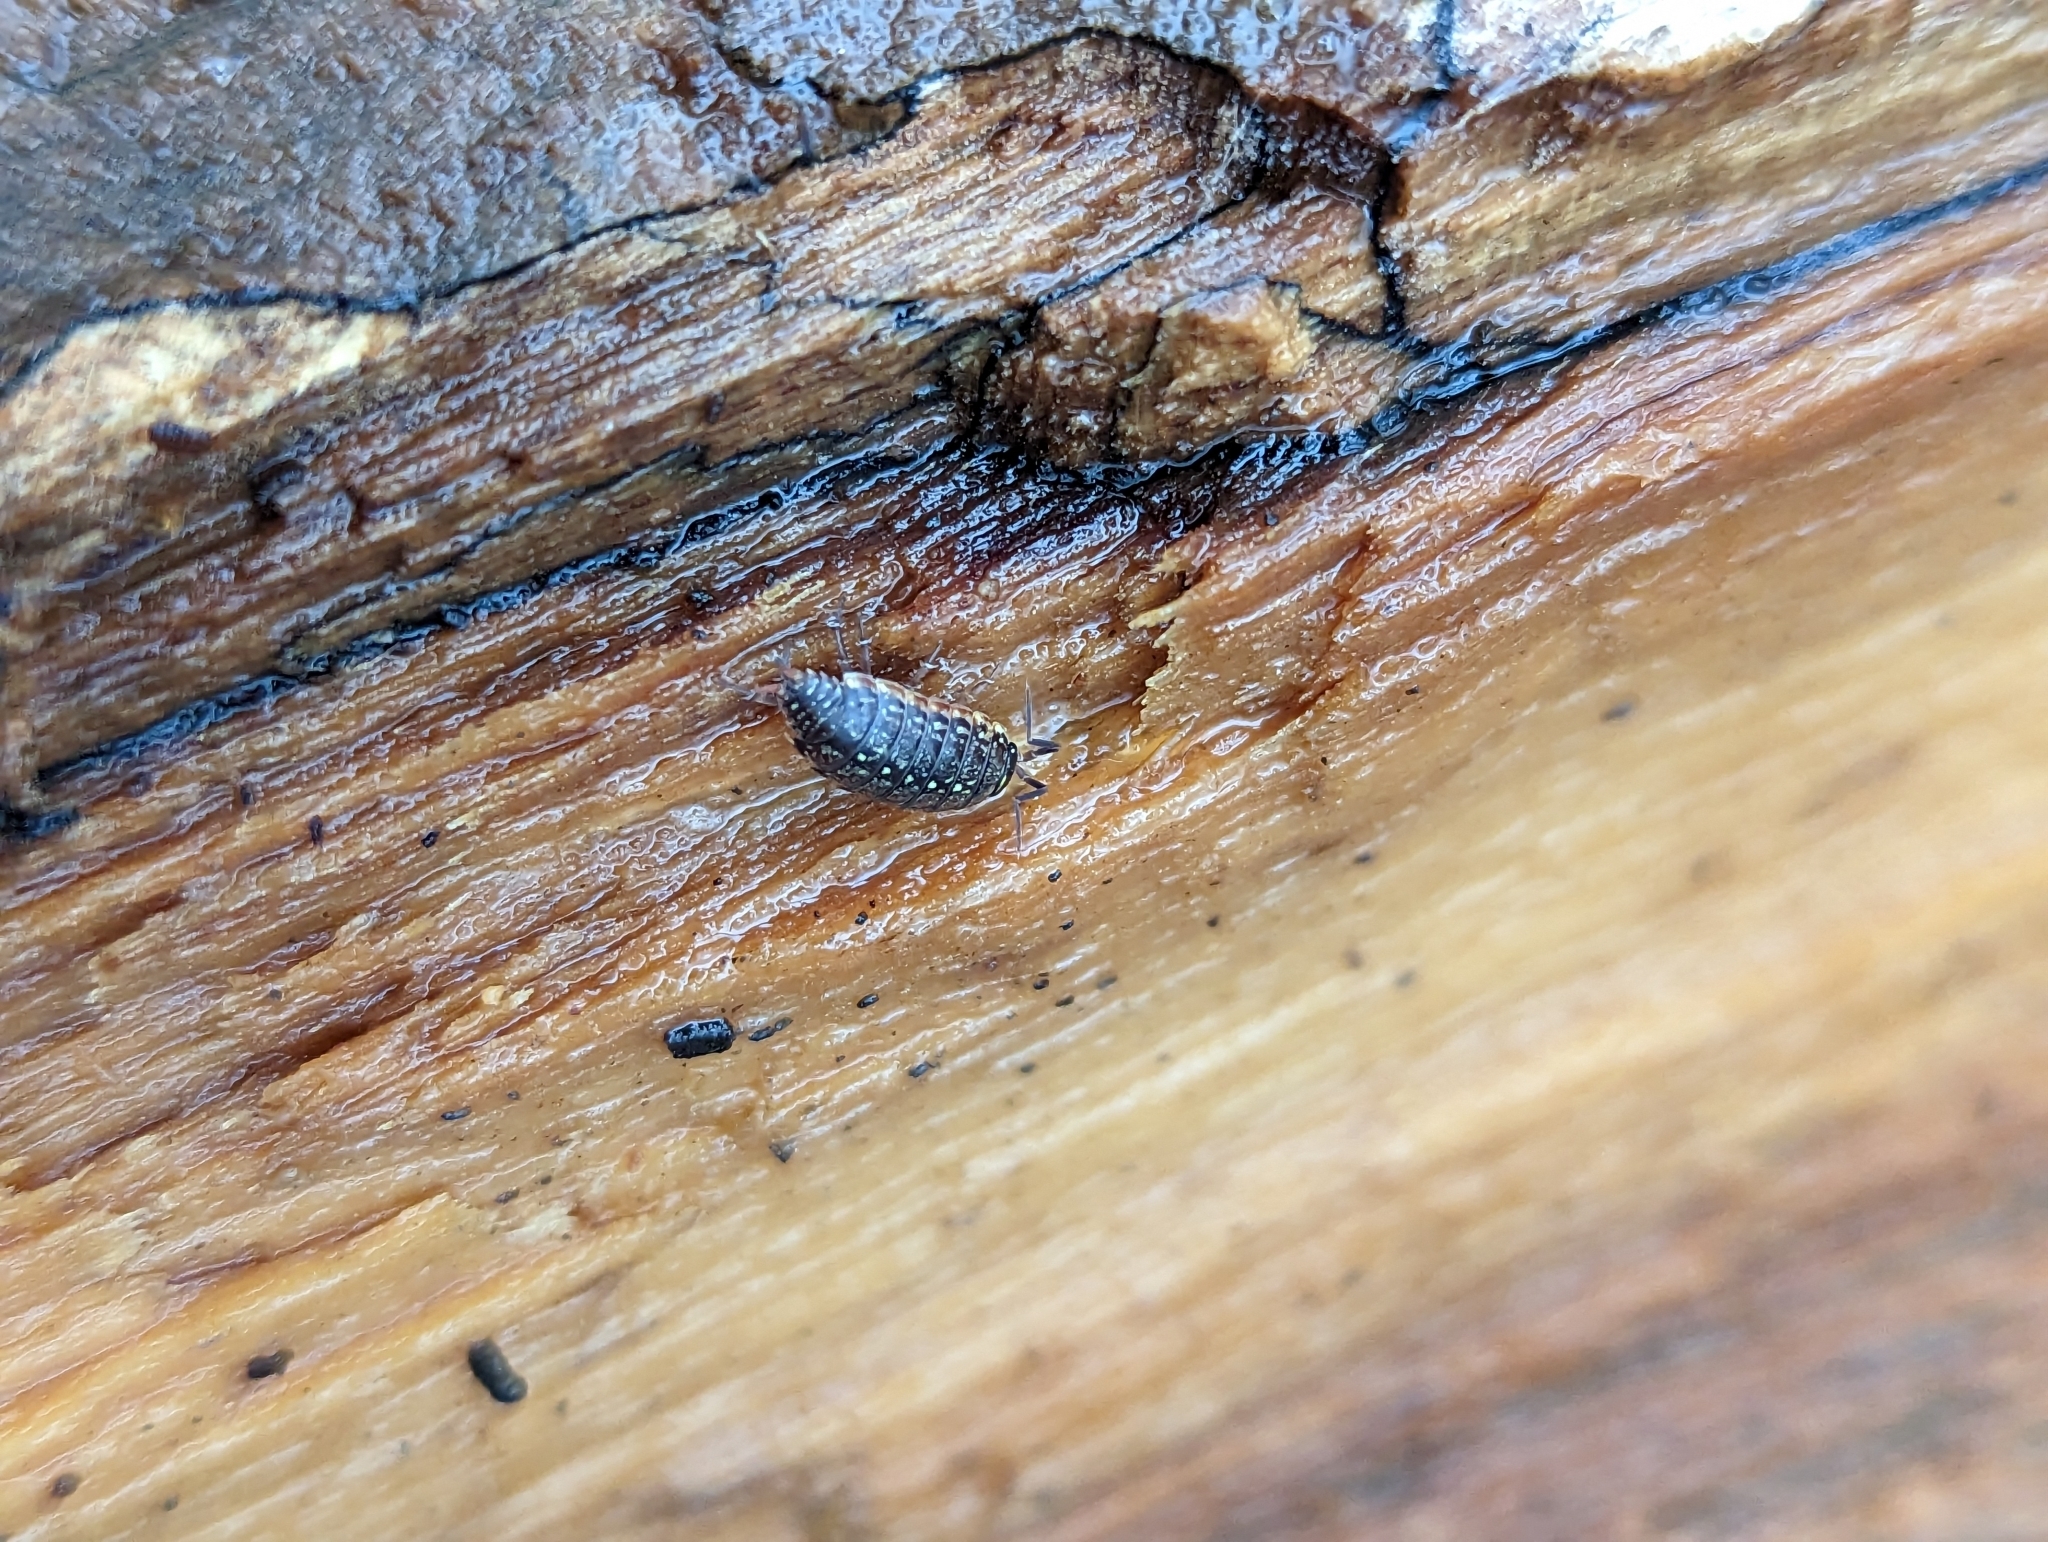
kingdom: Animalia
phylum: Arthropoda
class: Malacostraca
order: Isopoda
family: Philosciidae
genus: Philoscia
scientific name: Philoscia muscorum
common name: Common striped woodlouse
